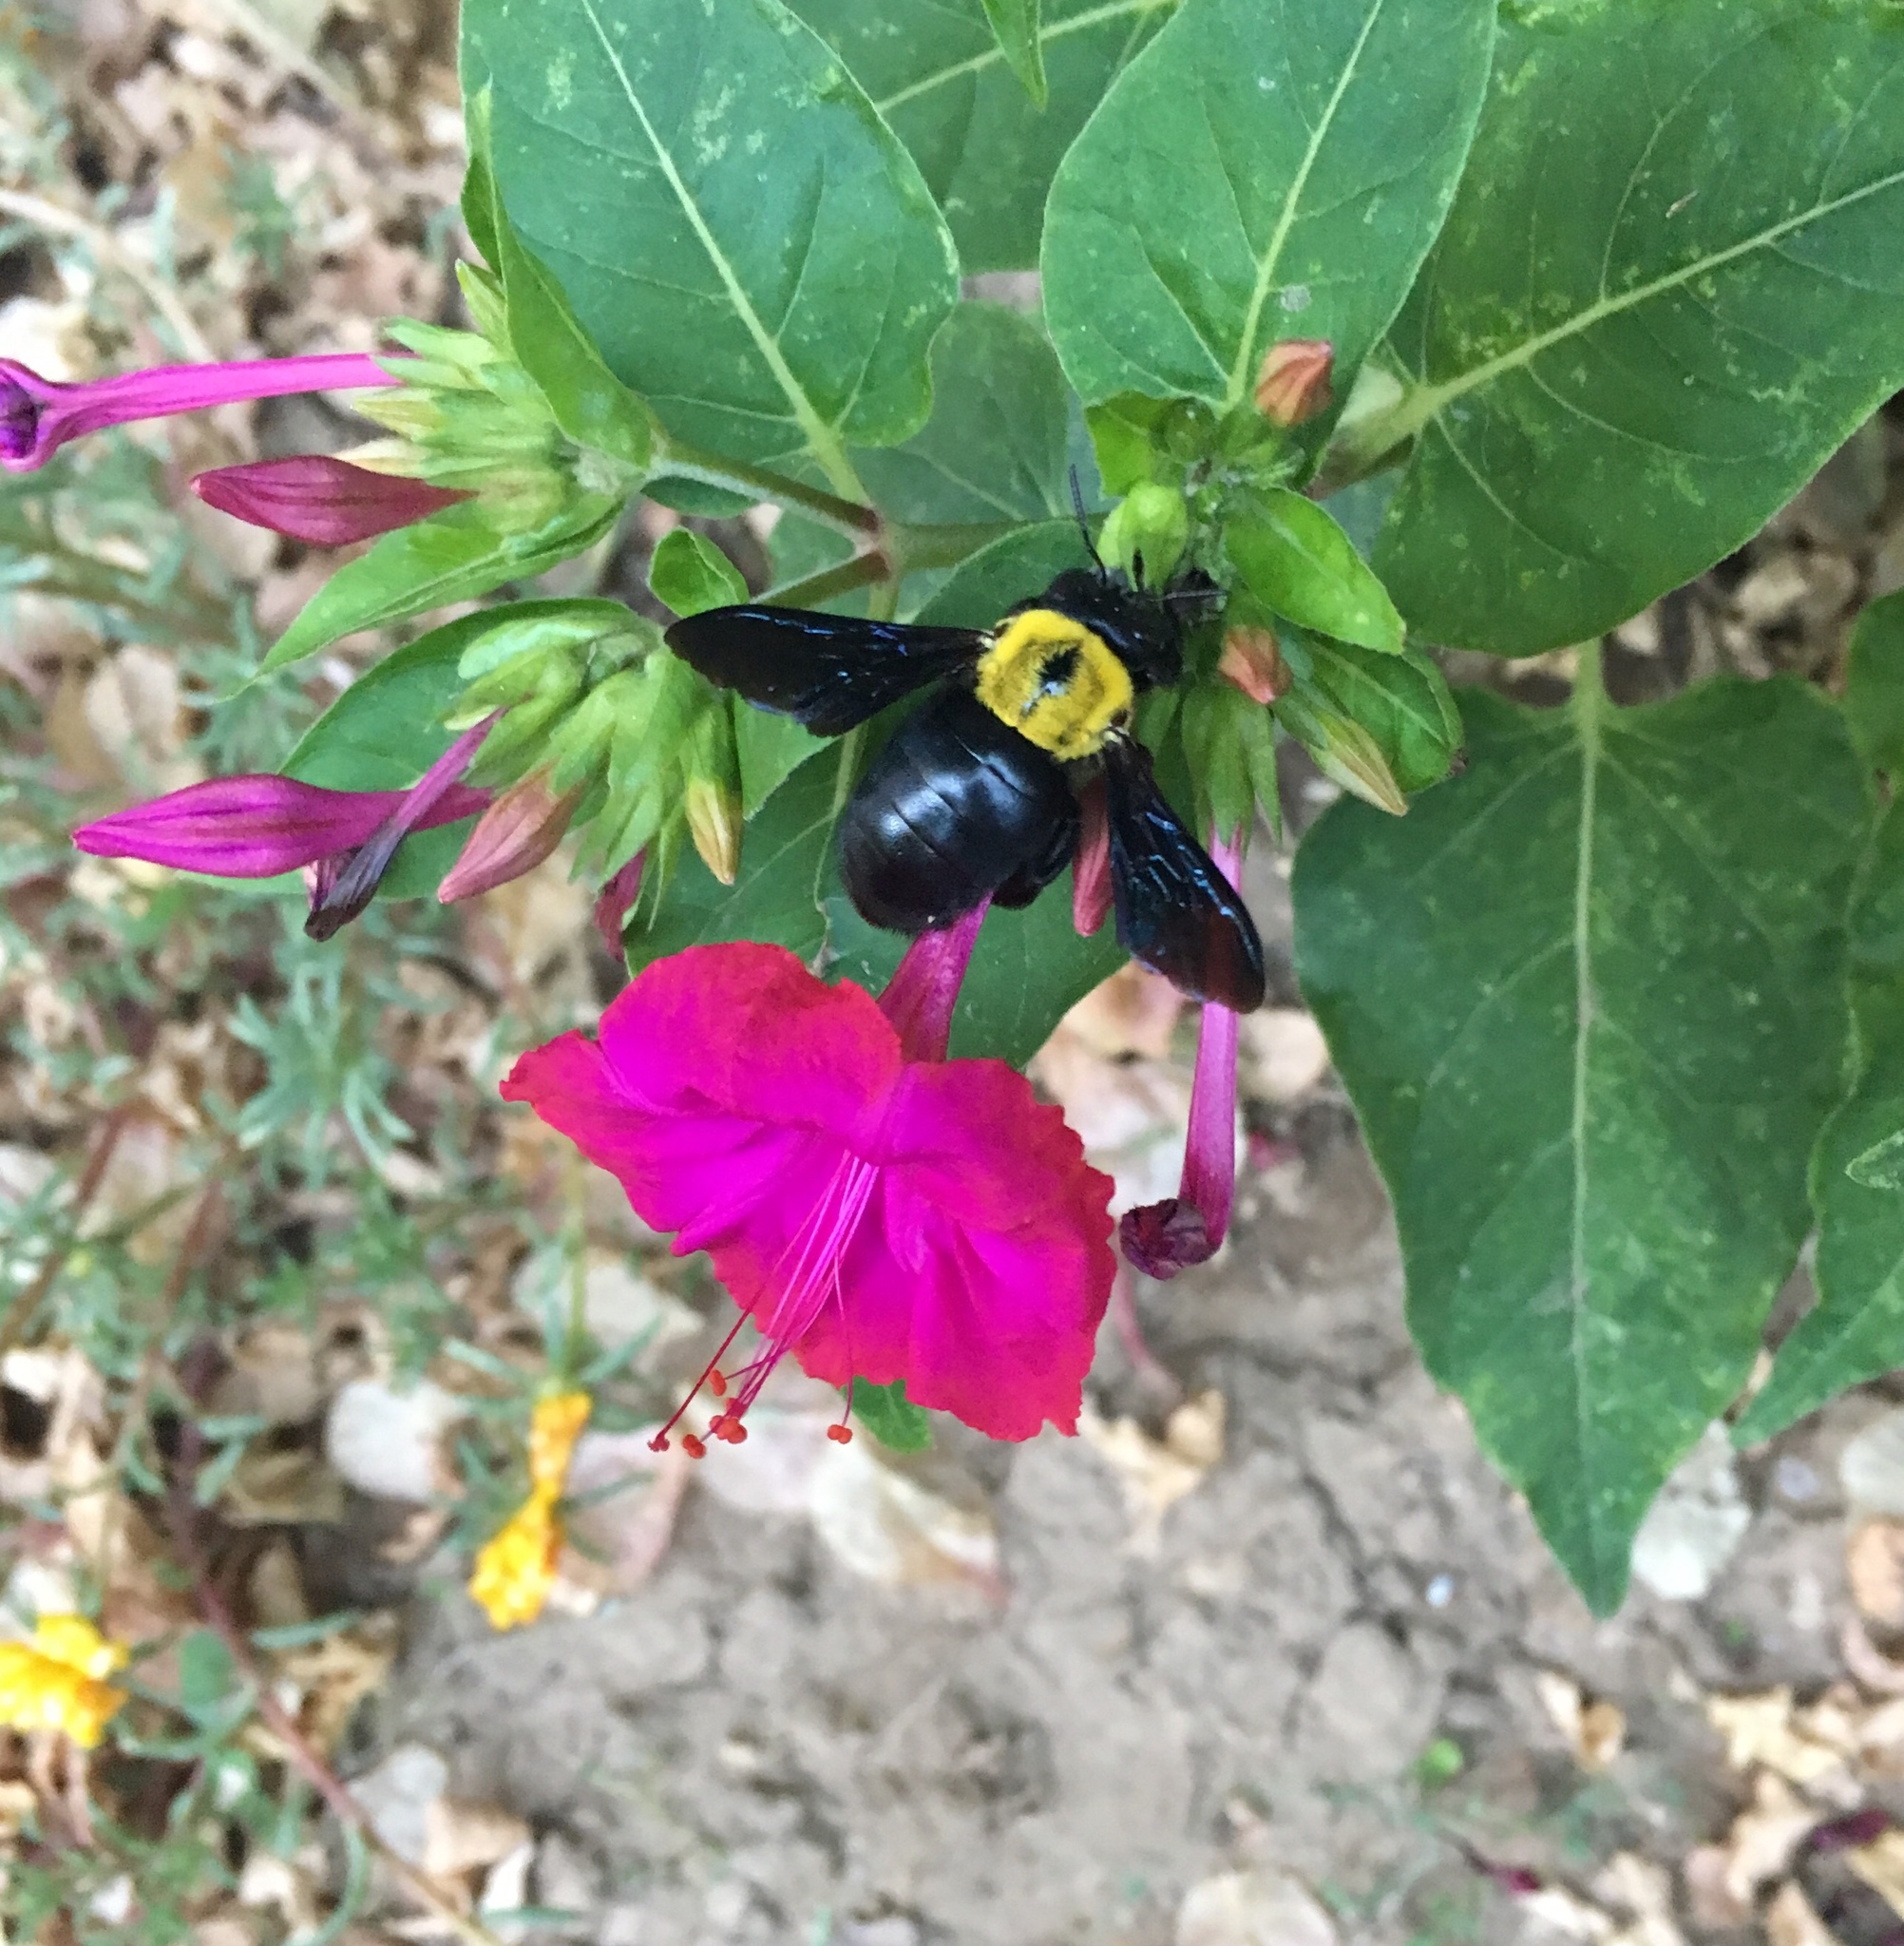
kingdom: Animalia
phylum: Arthropoda
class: Insecta
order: Hymenoptera
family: Apidae
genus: Xylocopa
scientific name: Xylocopa pubescens
